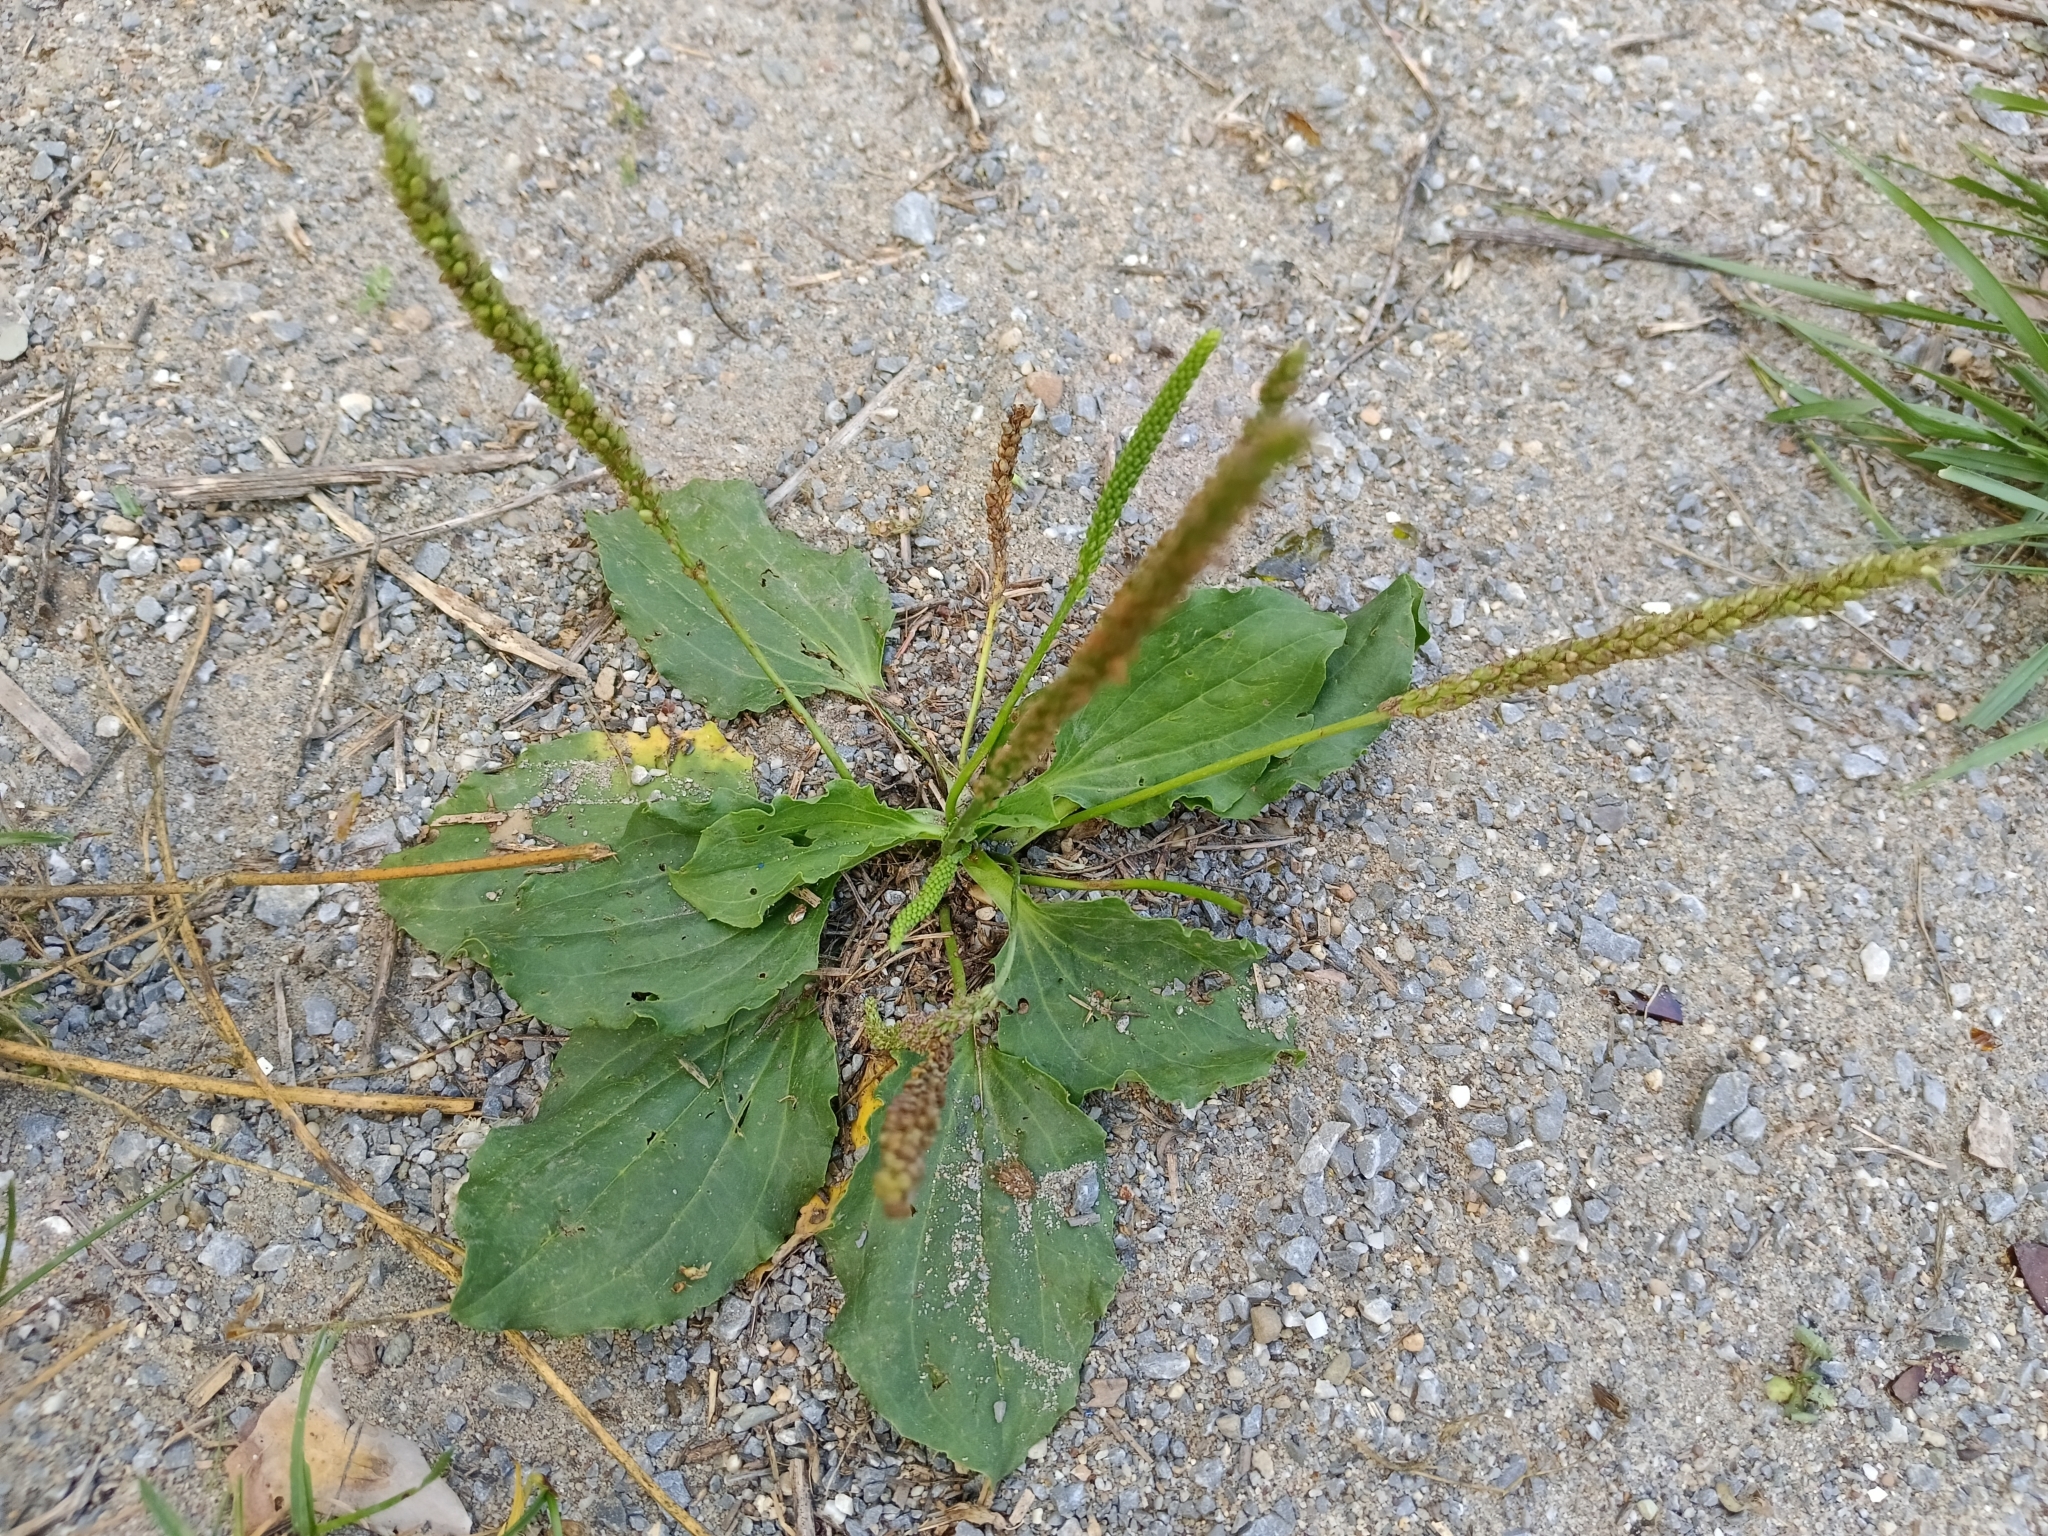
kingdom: Plantae
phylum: Tracheophyta
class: Magnoliopsida
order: Lamiales
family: Plantaginaceae
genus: Plantago
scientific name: Plantago major
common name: Common plantain
